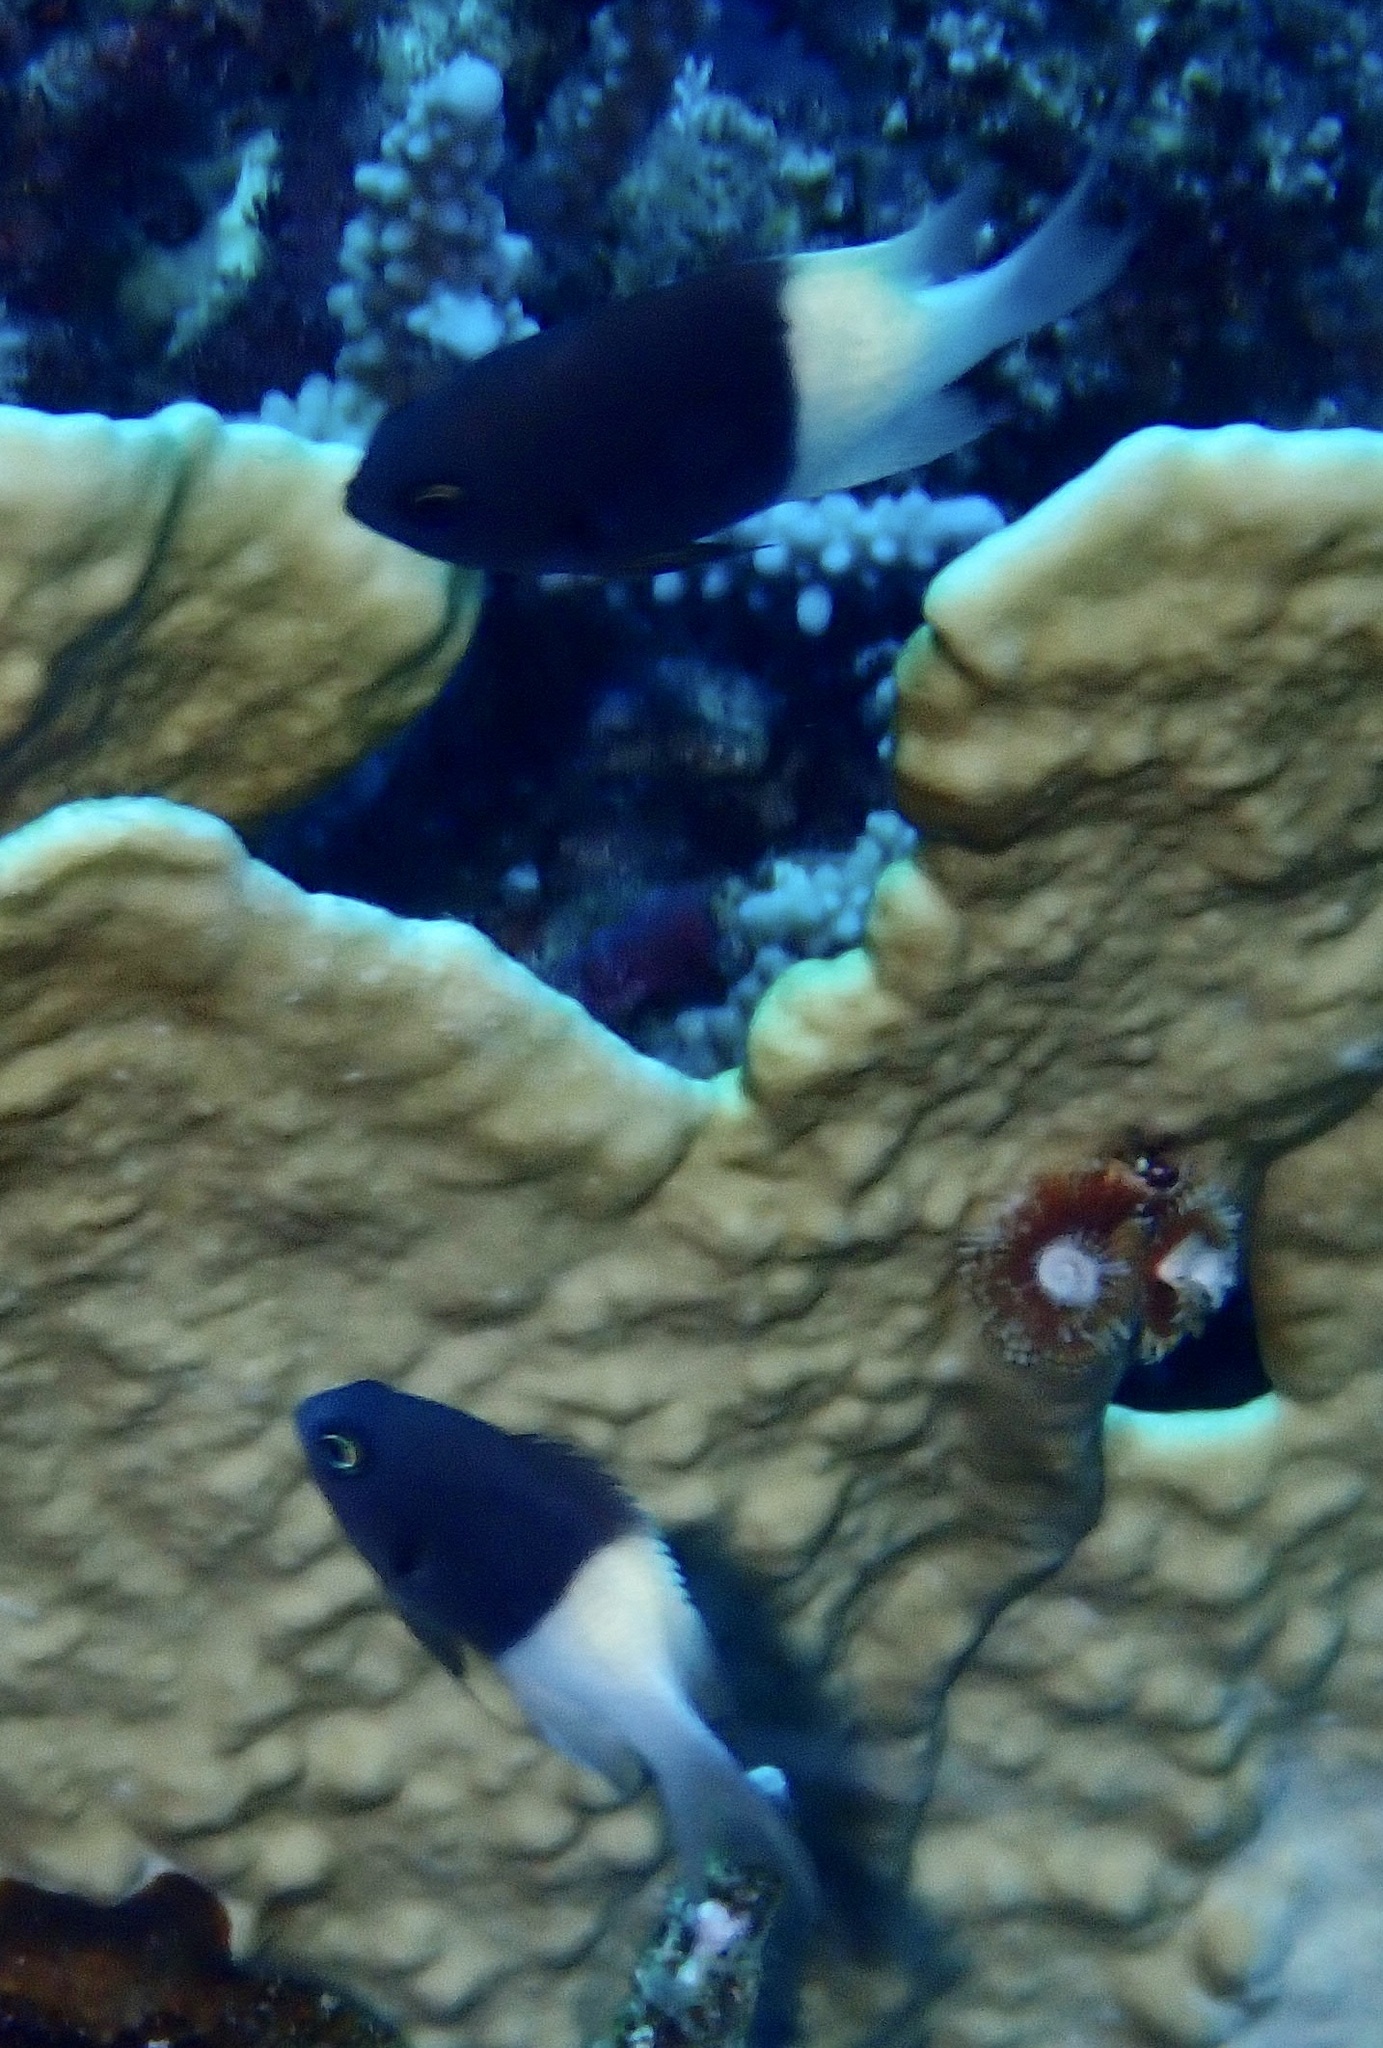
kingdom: Animalia
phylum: Chordata
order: Perciformes
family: Pomacentridae
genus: Chromis
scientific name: Chromis dimidiata
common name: Half-and-half chromis
